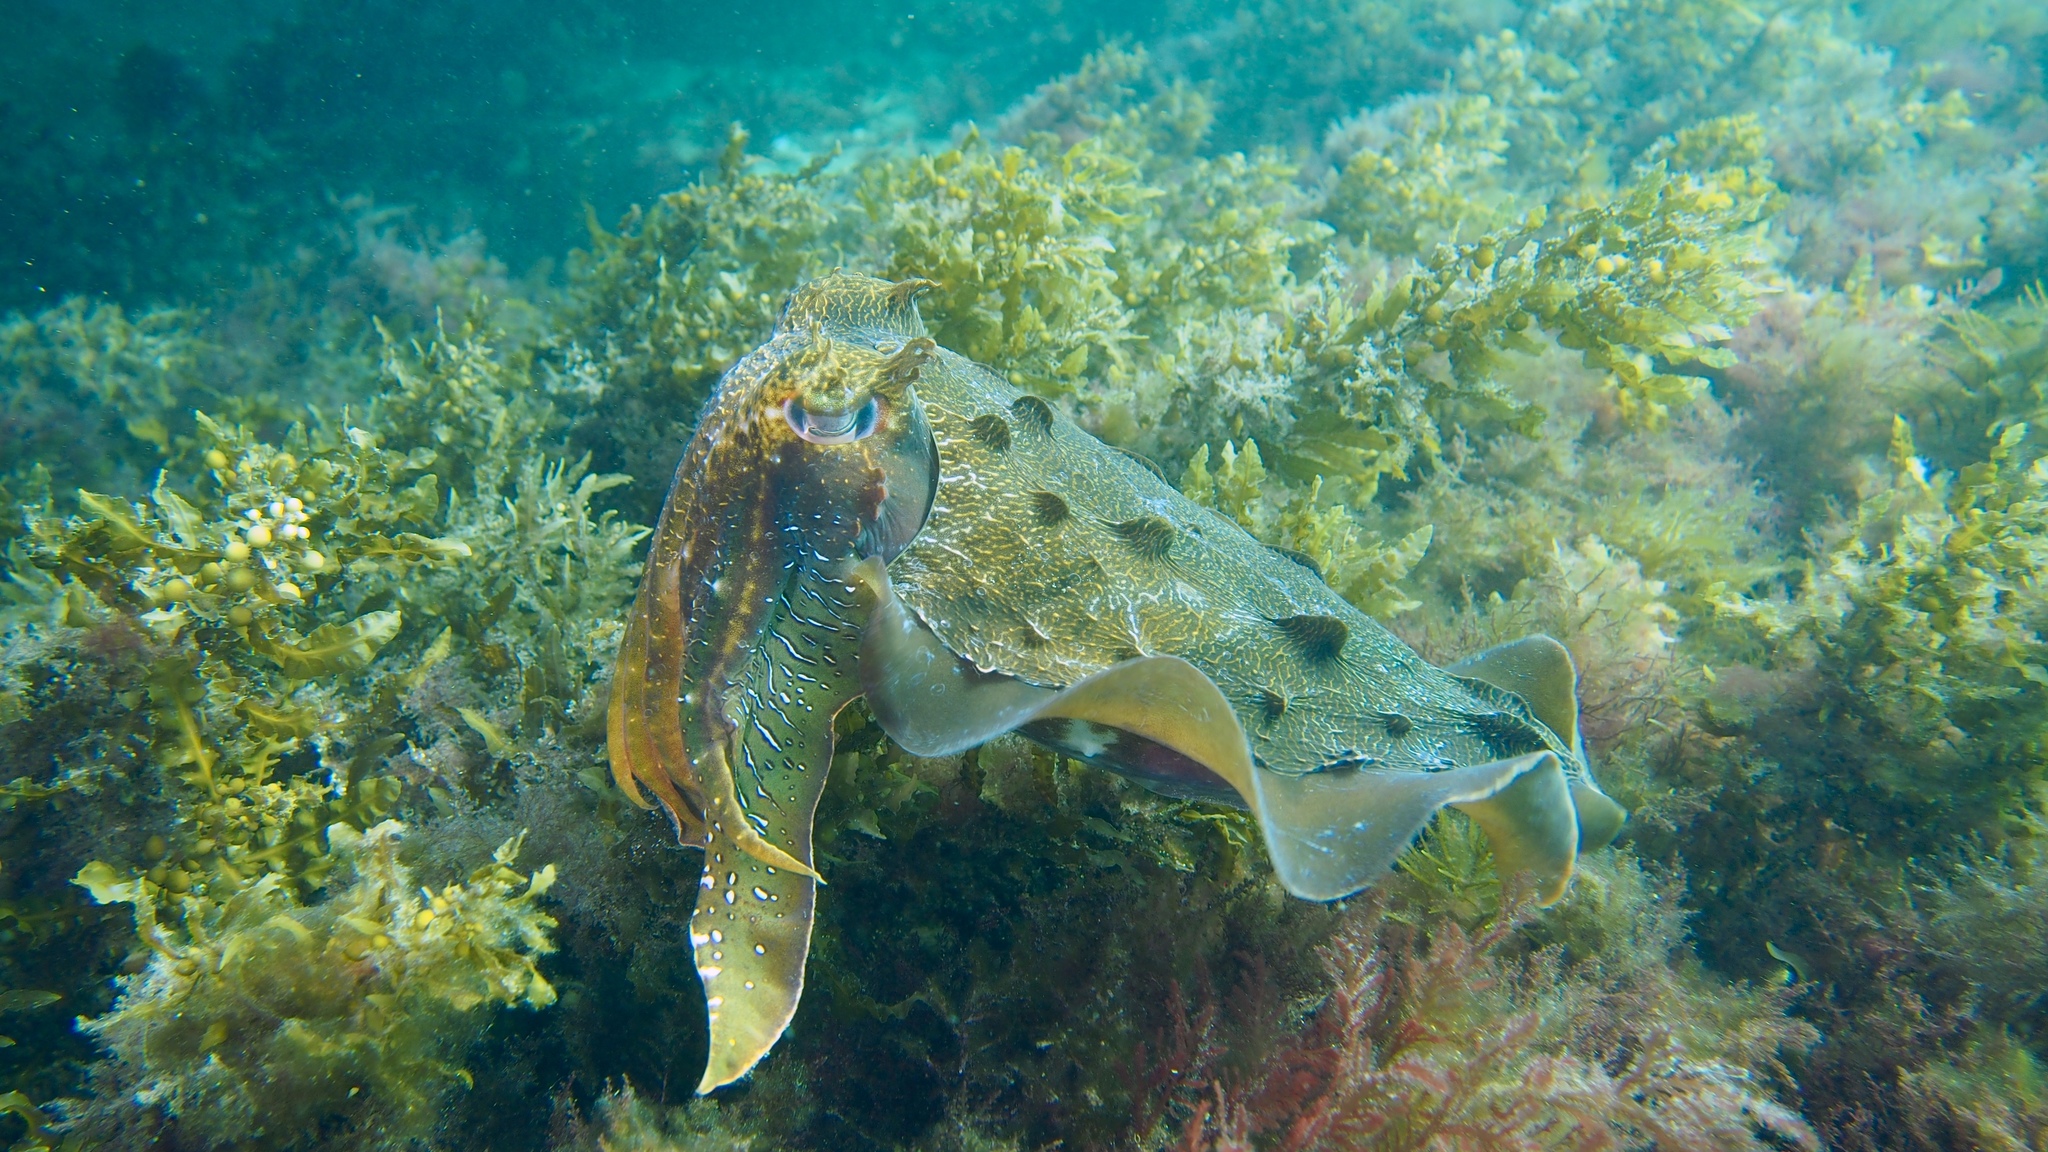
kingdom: Animalia
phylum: Mollusca
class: Cephalopoda
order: Sepiida
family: Sepiidae
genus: Ascarosepion
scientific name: Ascarosepion apama
